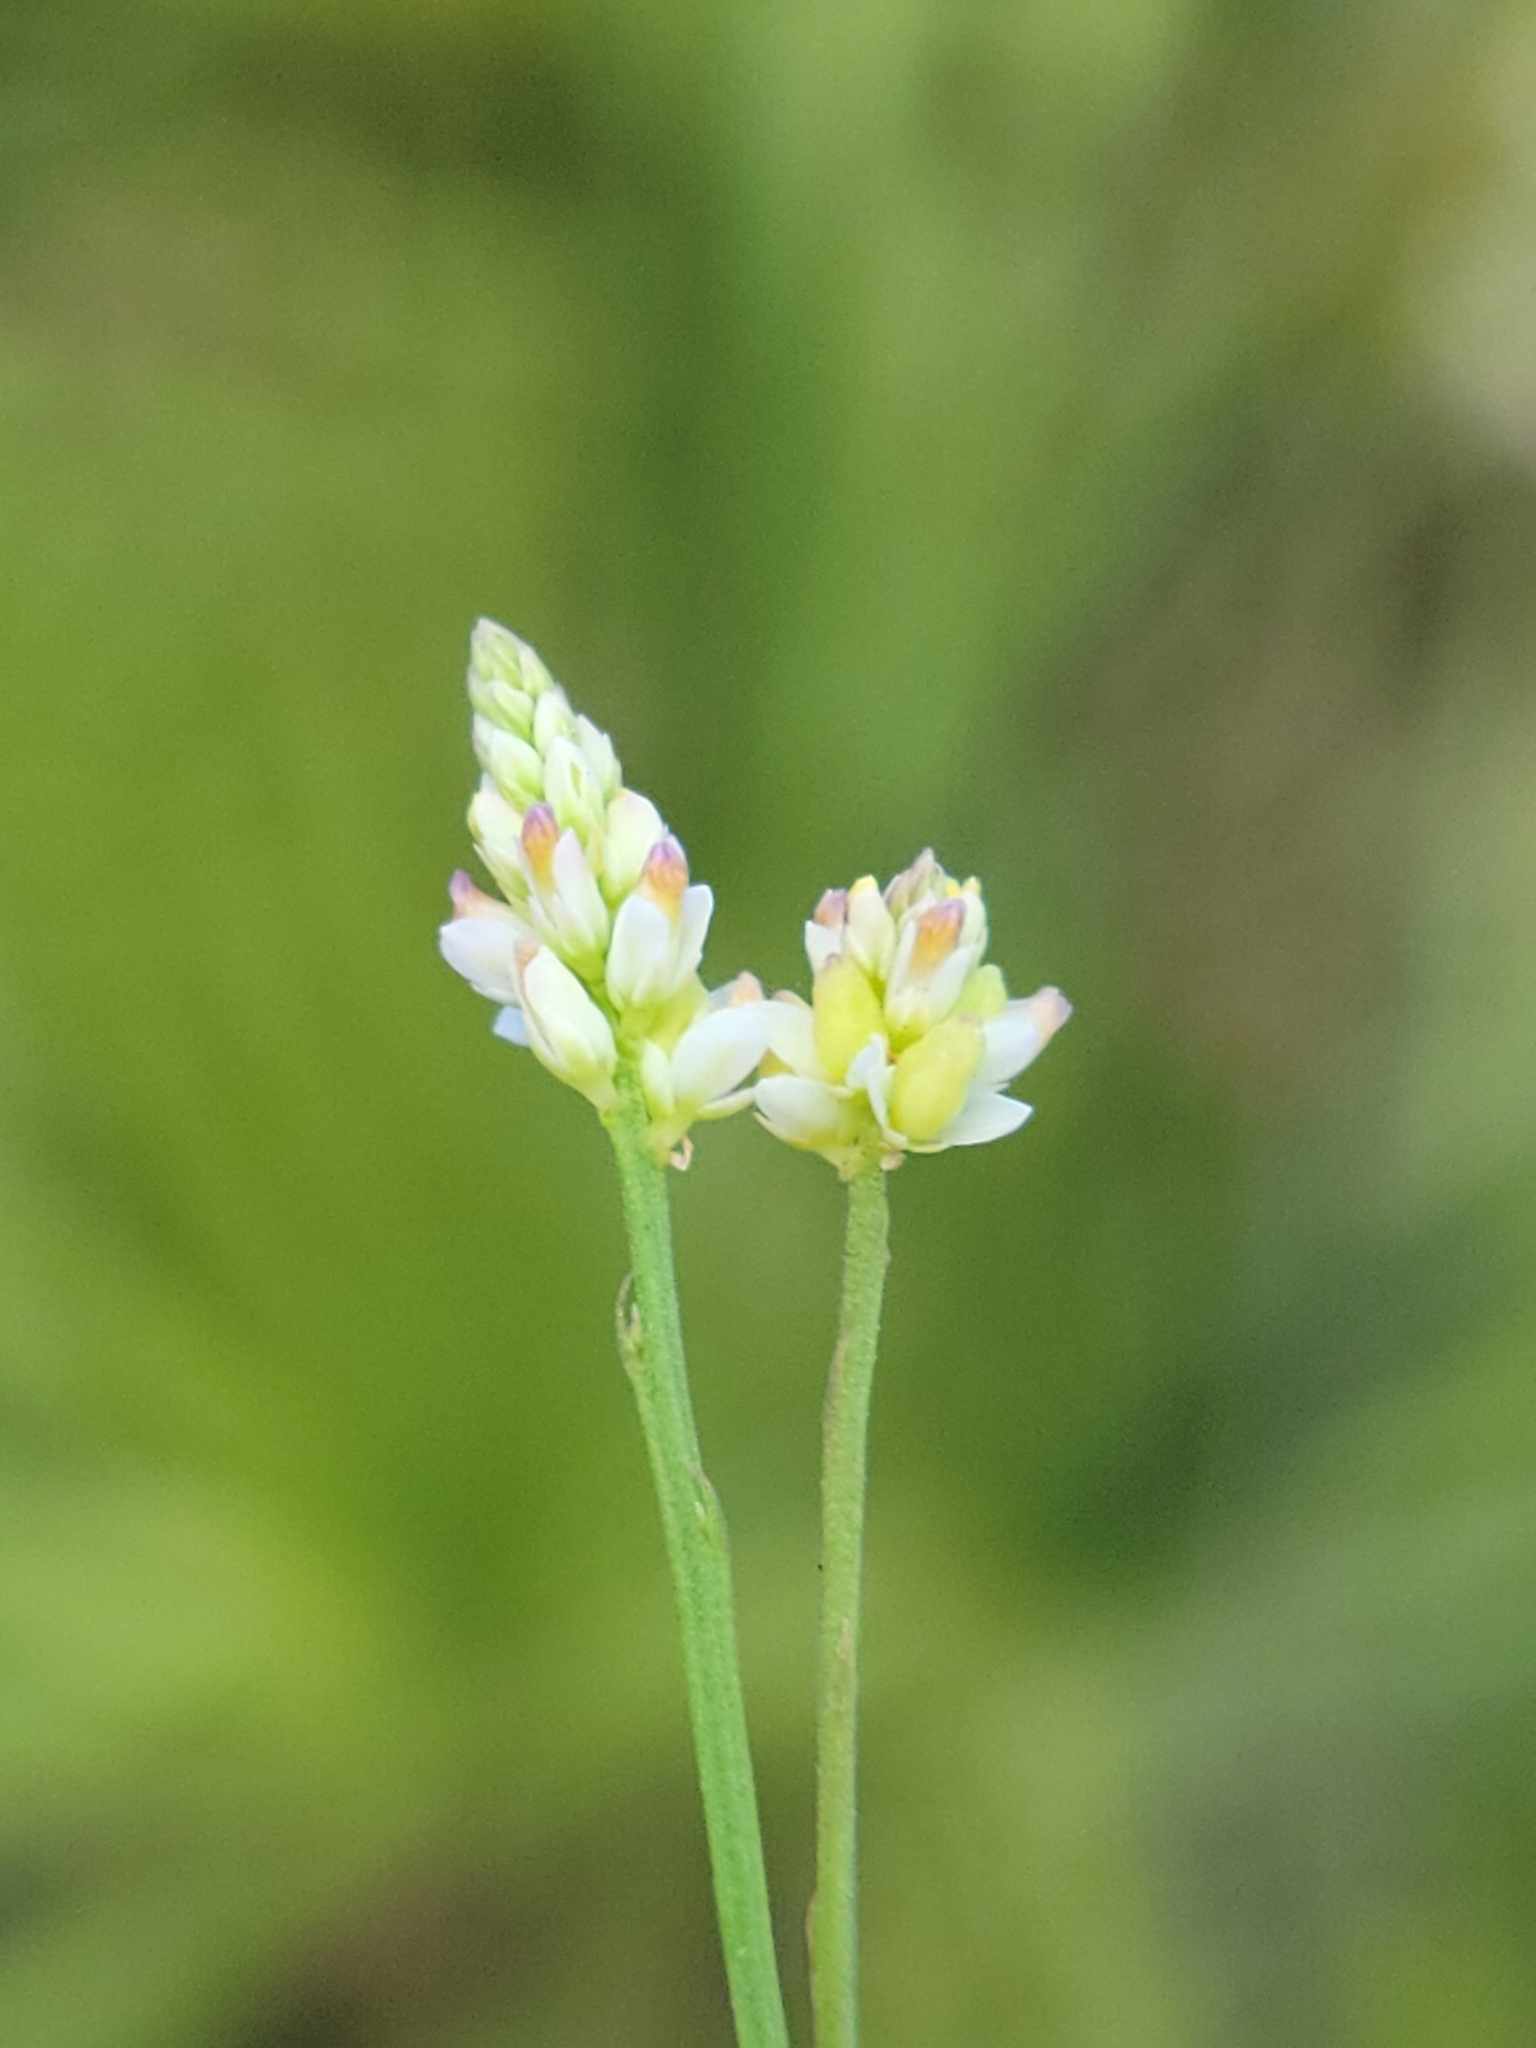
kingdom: Plantae
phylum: Tracheophyta
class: Magnoliopsida
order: Fabales
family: Polygalaceae
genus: Polygala
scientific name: Polygala setacea
